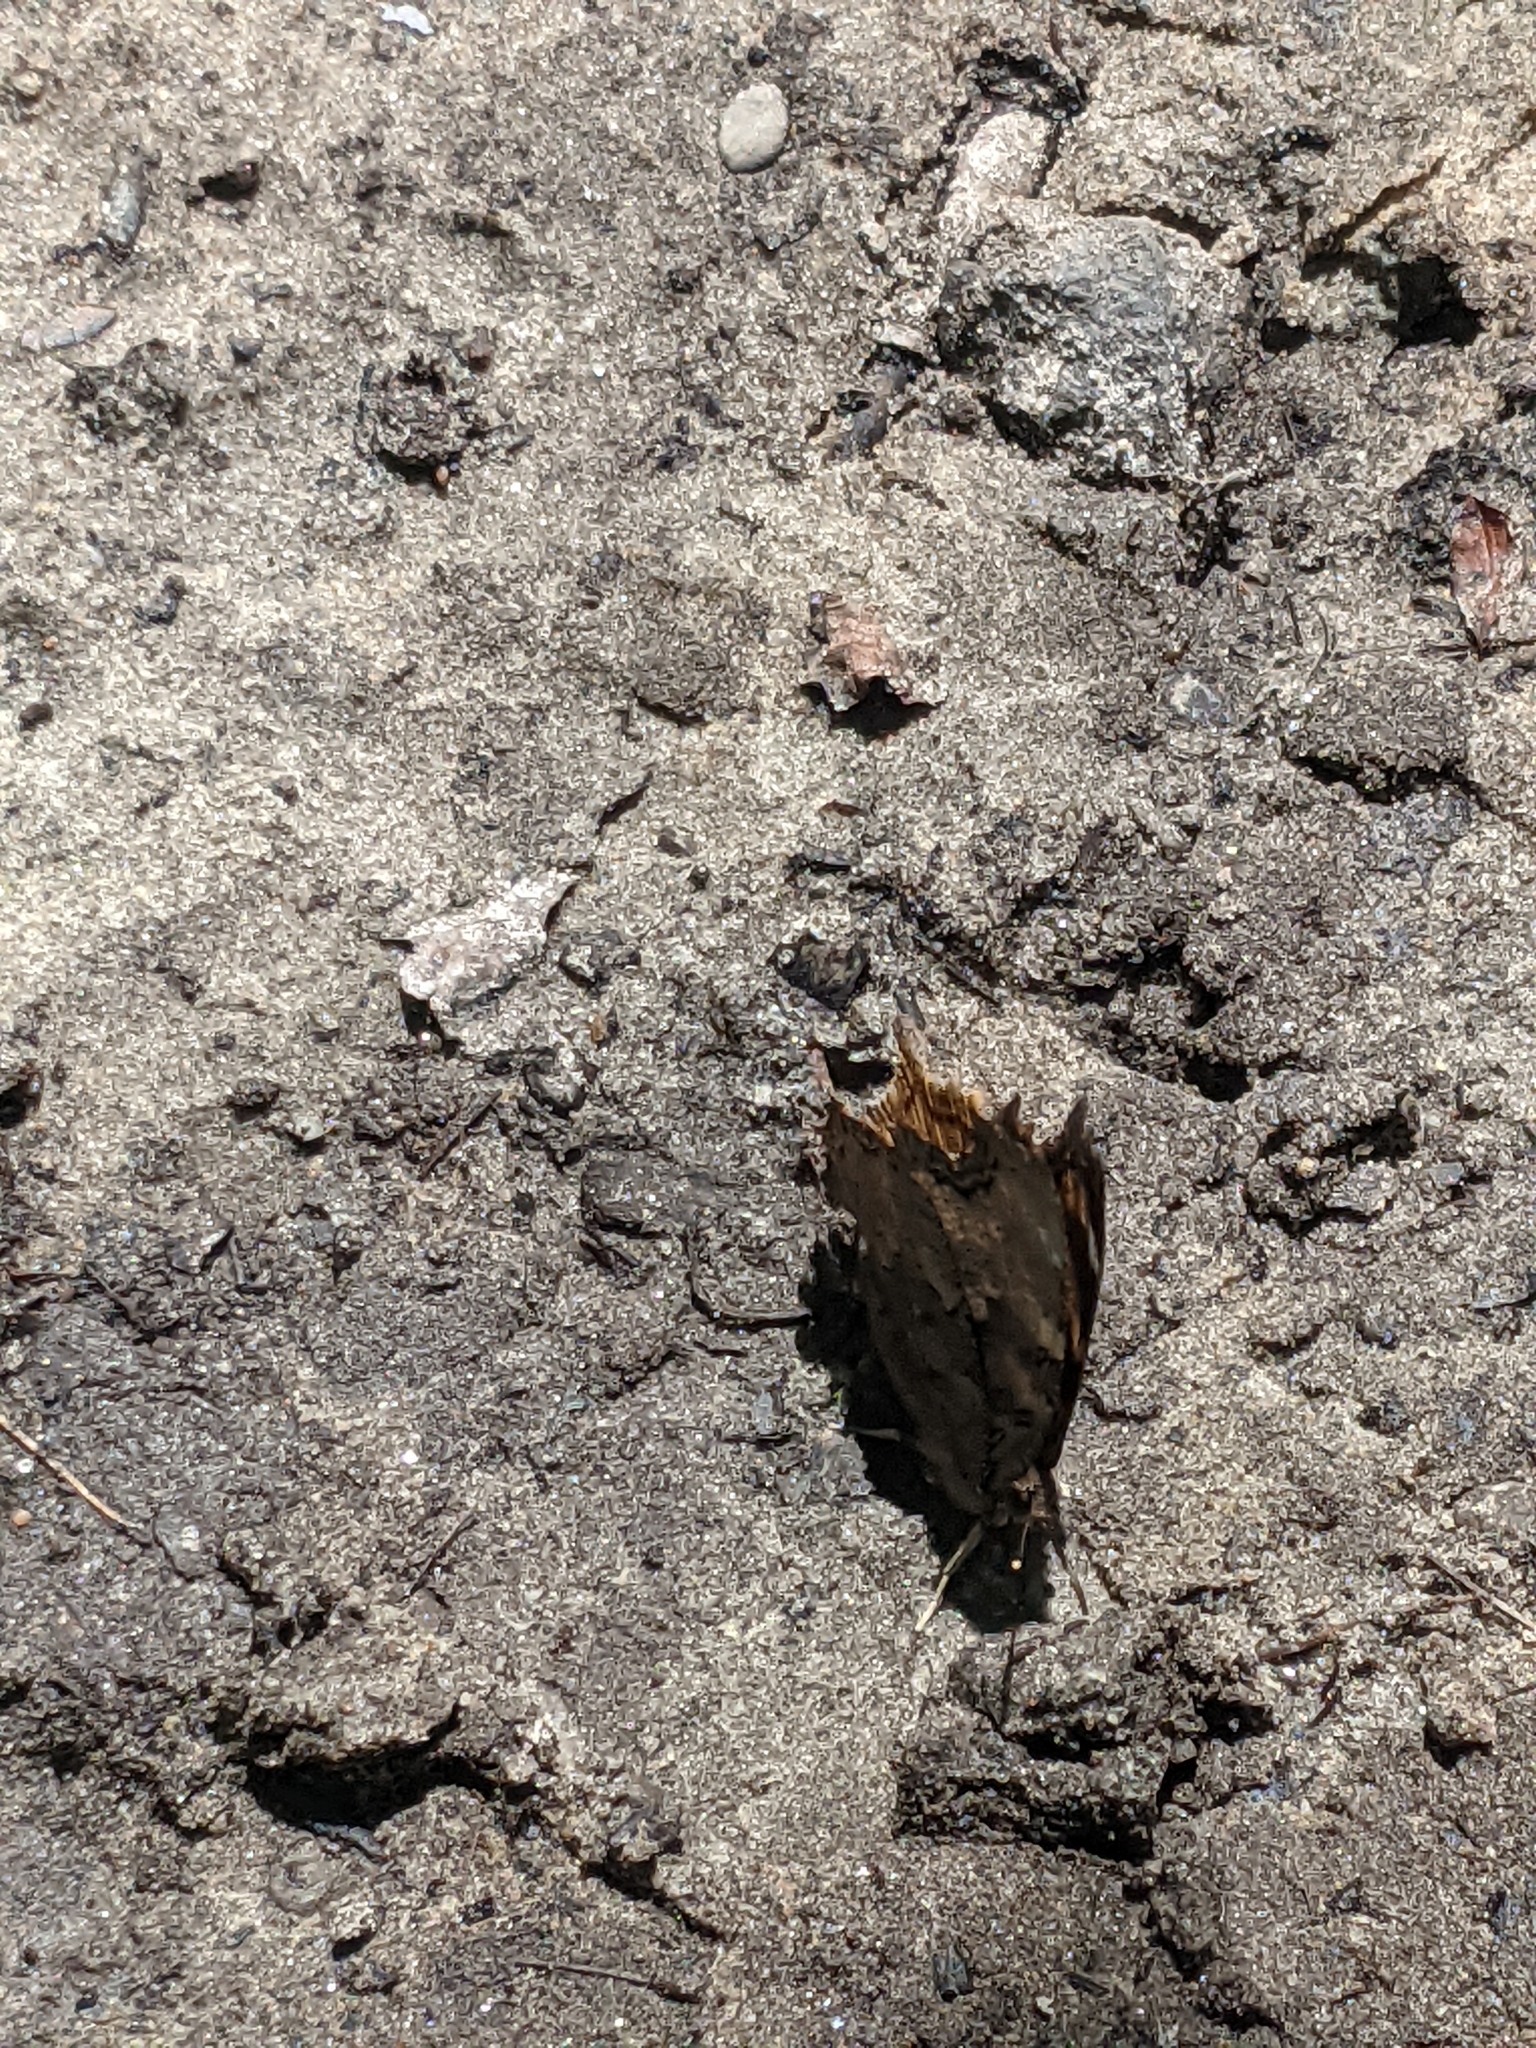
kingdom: Animalia
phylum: Arthropoda
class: Insecta
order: Lepidoptera
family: Nymphalidae
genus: Polygonia
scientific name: Polygonia vaualbum
